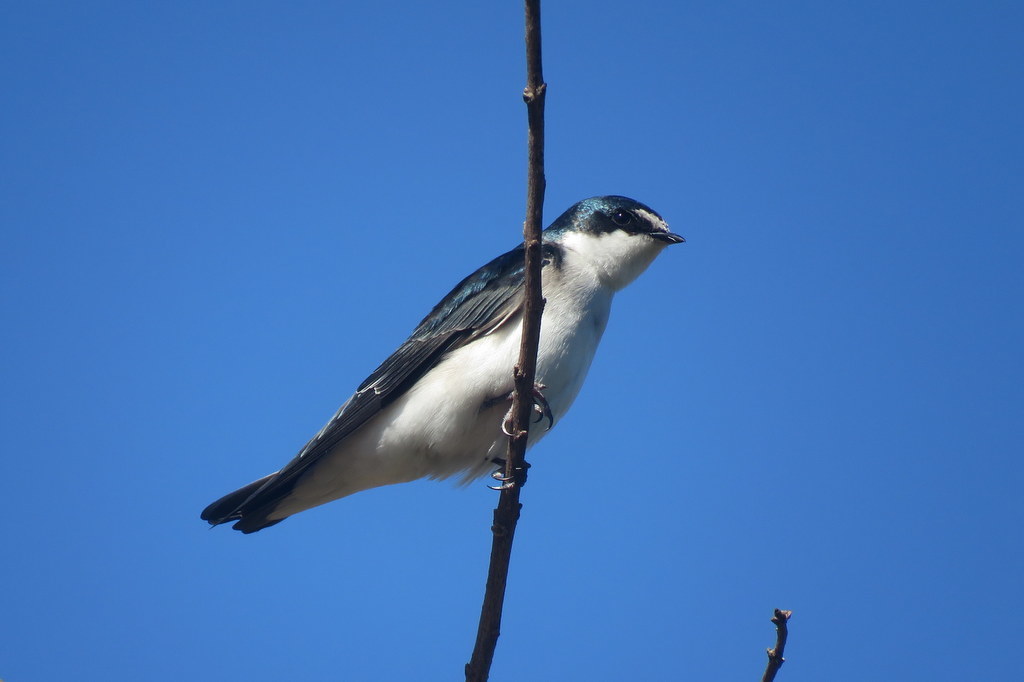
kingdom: Animalia
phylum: Chordata
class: Aves
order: Passeriformes
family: Hirundinidae
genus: Tachycineta
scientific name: Tachycineta leucorrhoa
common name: White-rumped swallow
